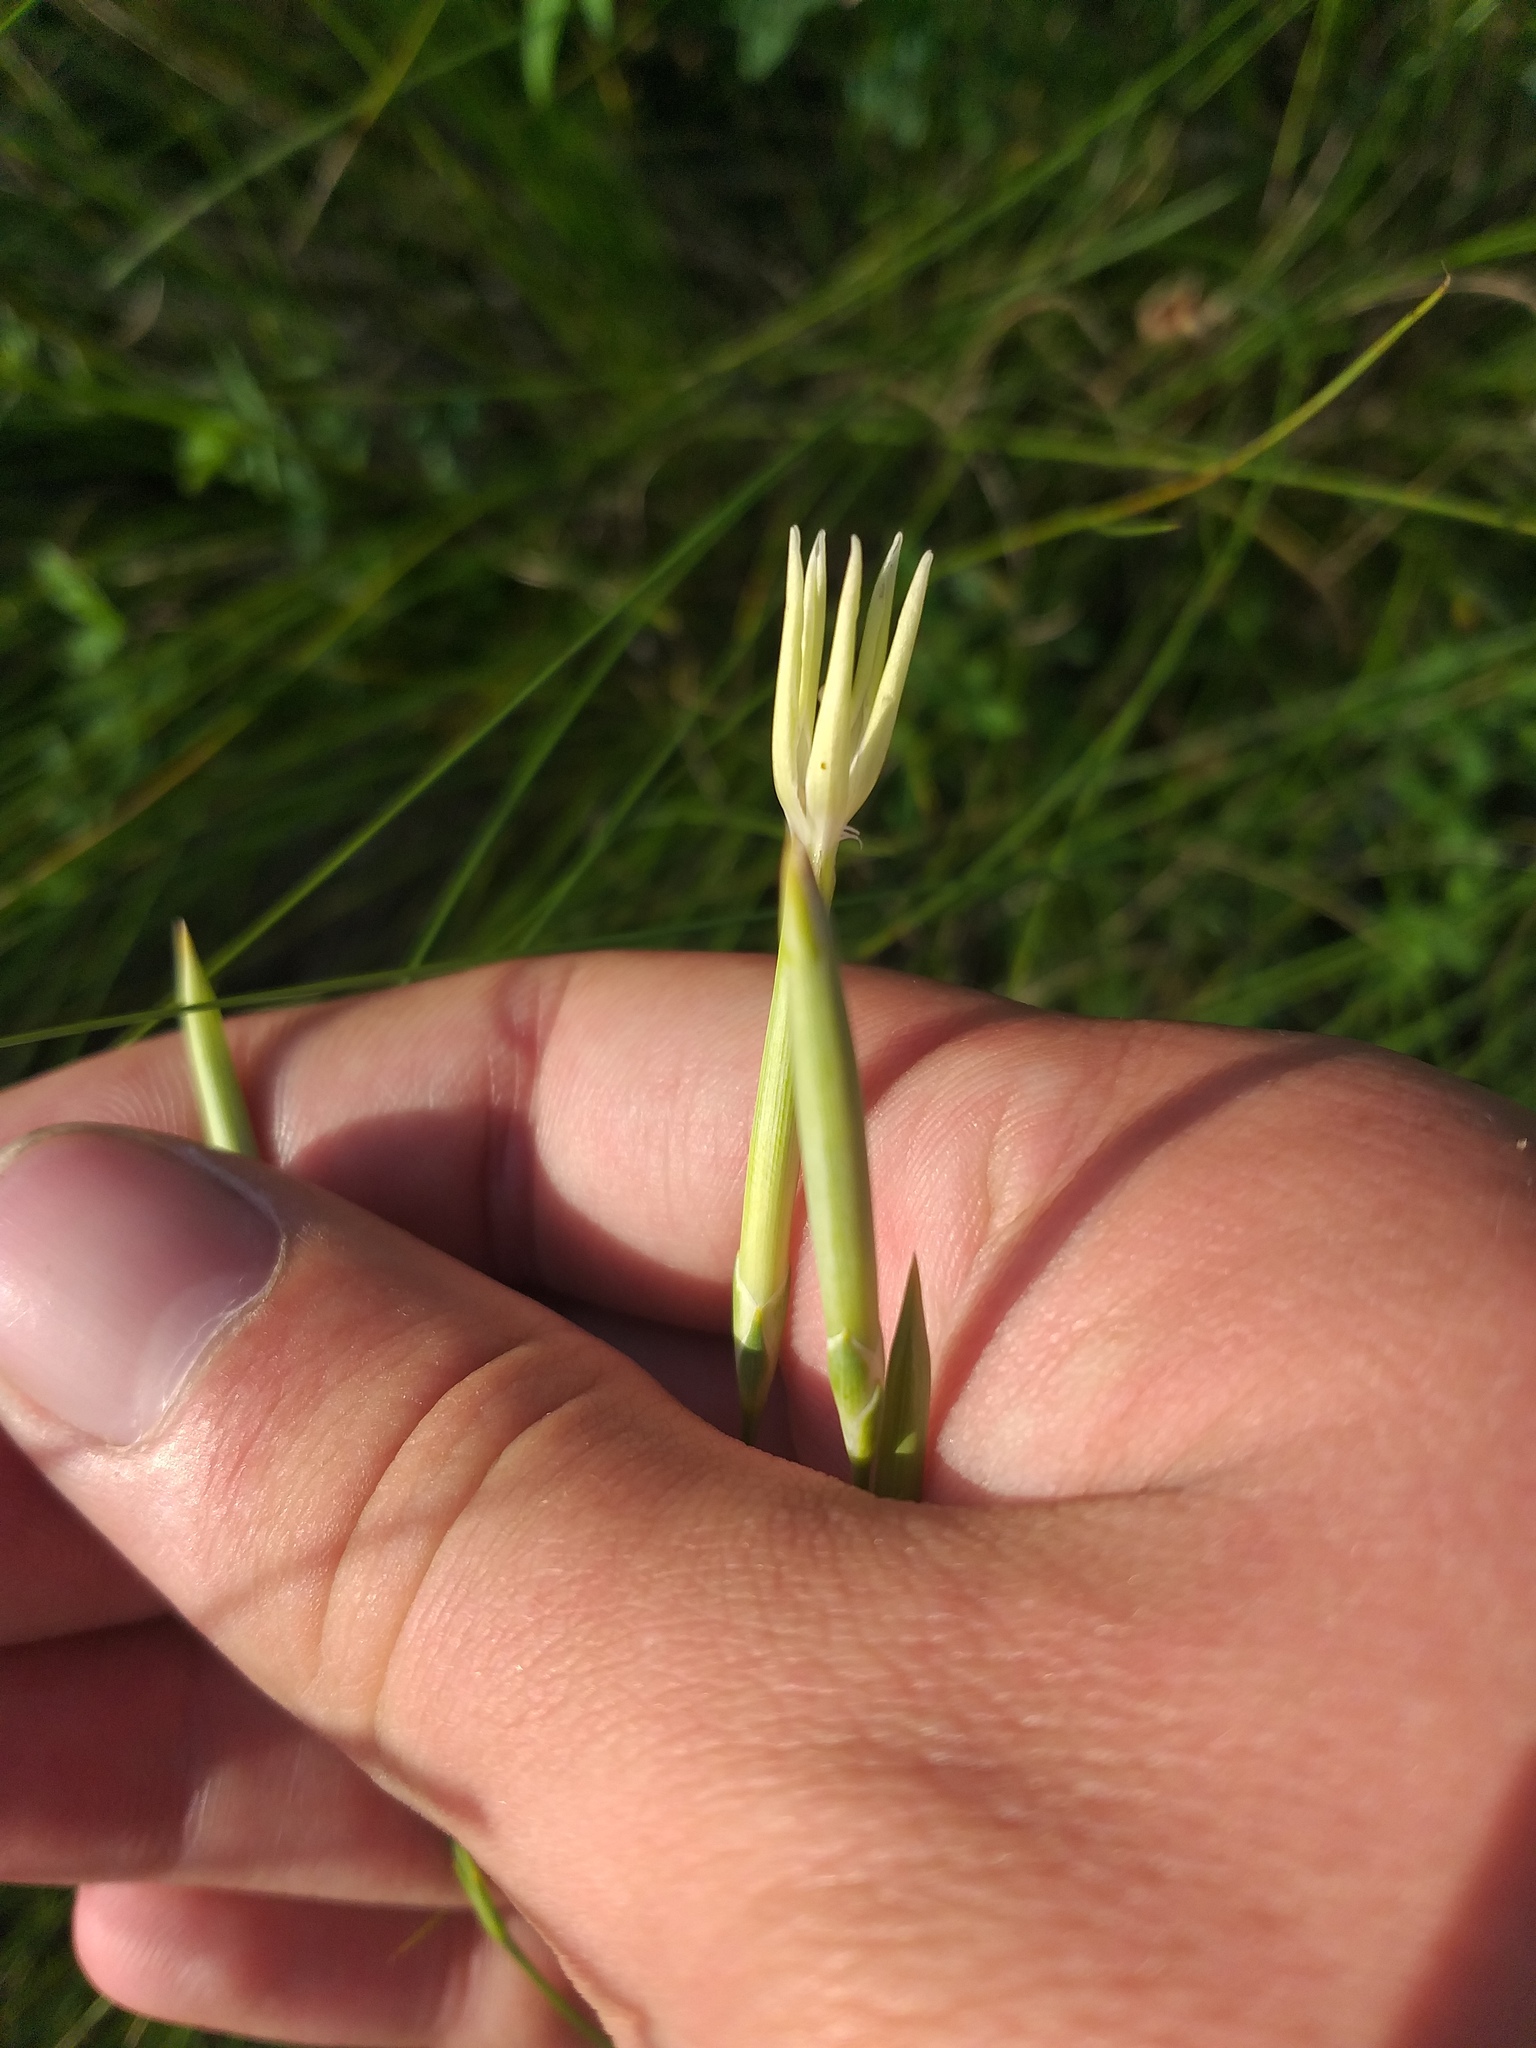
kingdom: Plantae
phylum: Tracheophyta
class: Magnoliopsida
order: Caryophyllales
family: Caryophyllaceae
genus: Dianthus
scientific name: Dianthus leptopetalus
